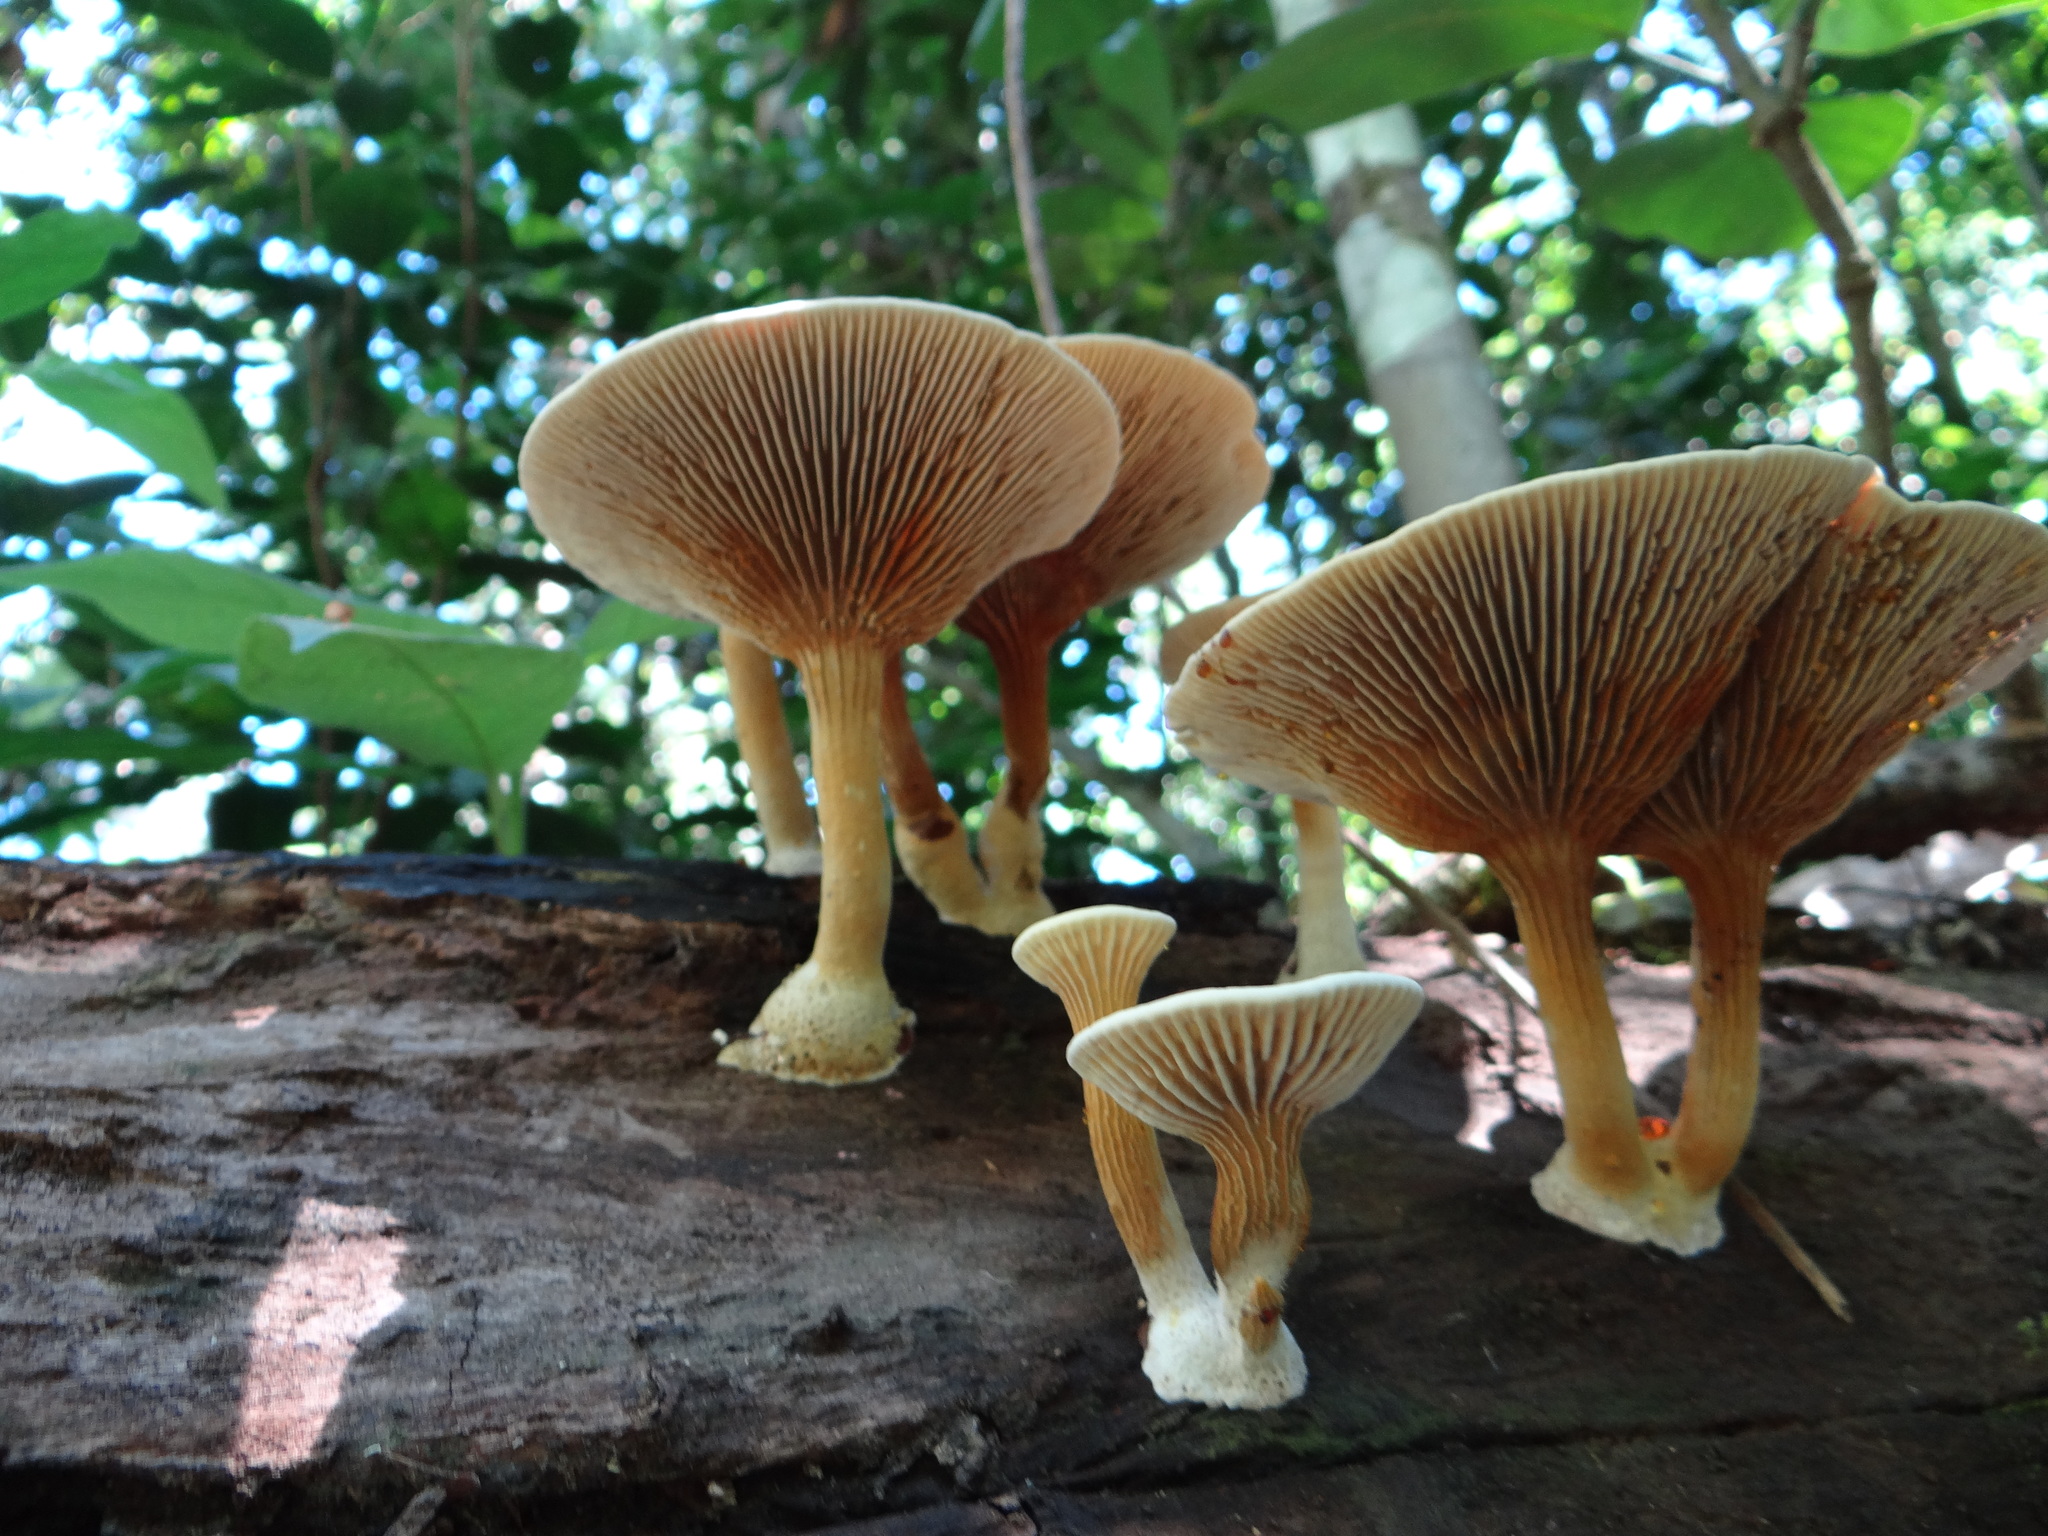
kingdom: Fungi
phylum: Basidiomycota
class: Agaricomycetes
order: Gloeophyllales
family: Gloeophyllaceae
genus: Stiptophyllum
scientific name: Stiptophyllum erubescens
